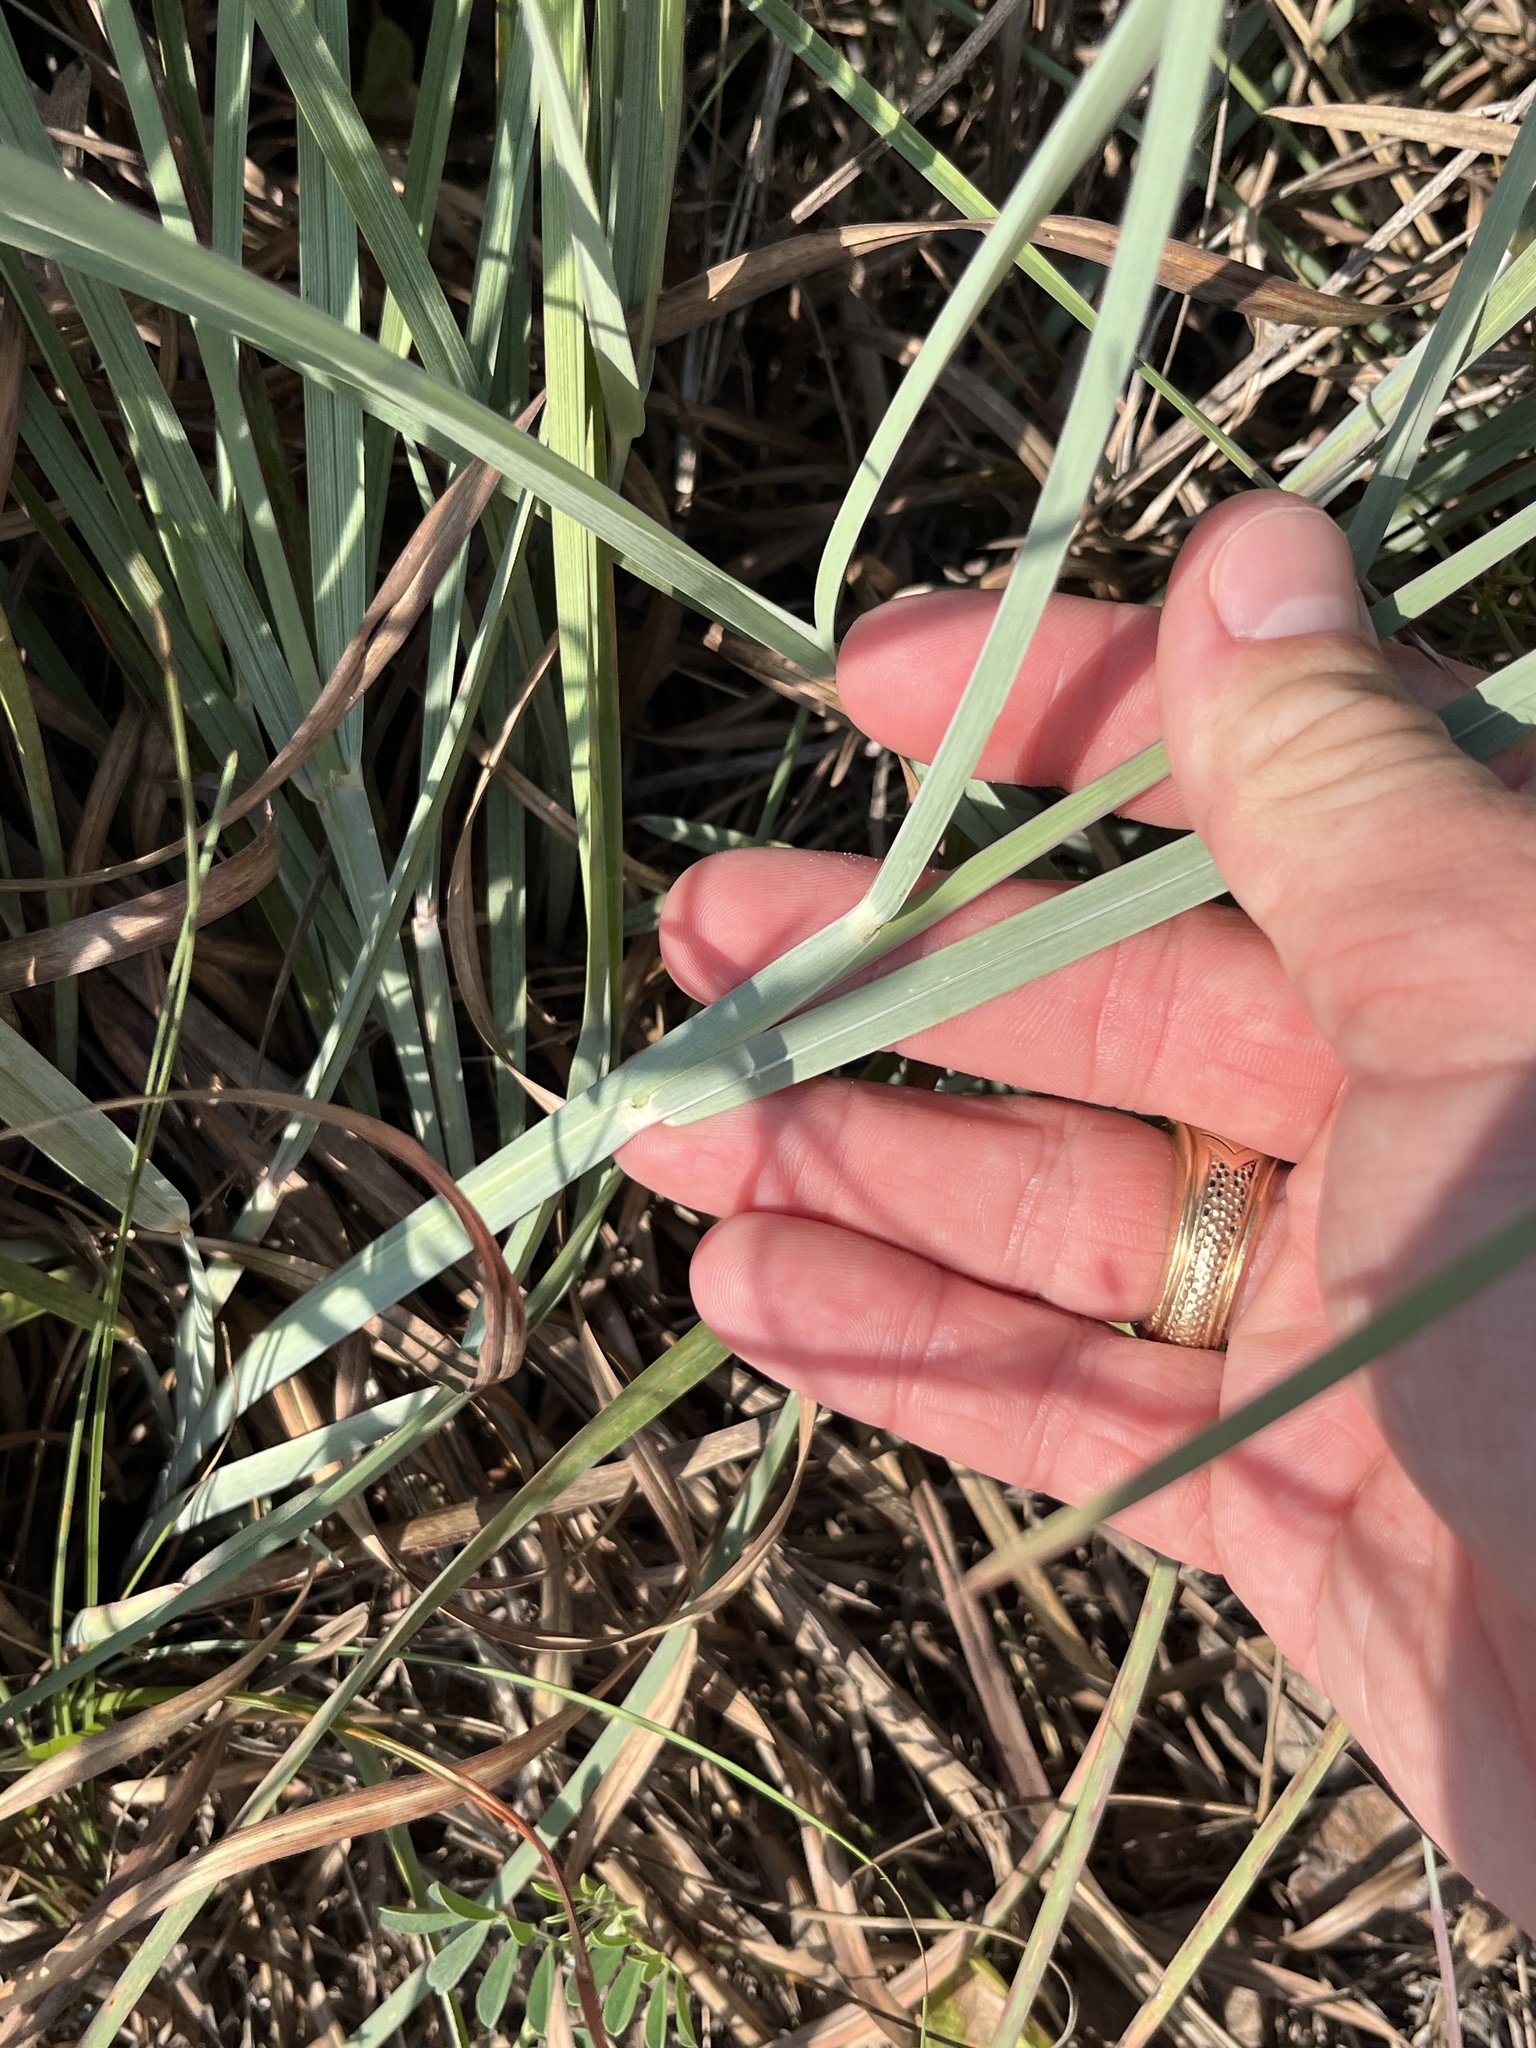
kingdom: Plantae
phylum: Tracheophyta
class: Liliopsida
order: Poales
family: Poaceae
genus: Schizachyrium
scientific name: Schizachyrium scoparium
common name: Little bluestem
